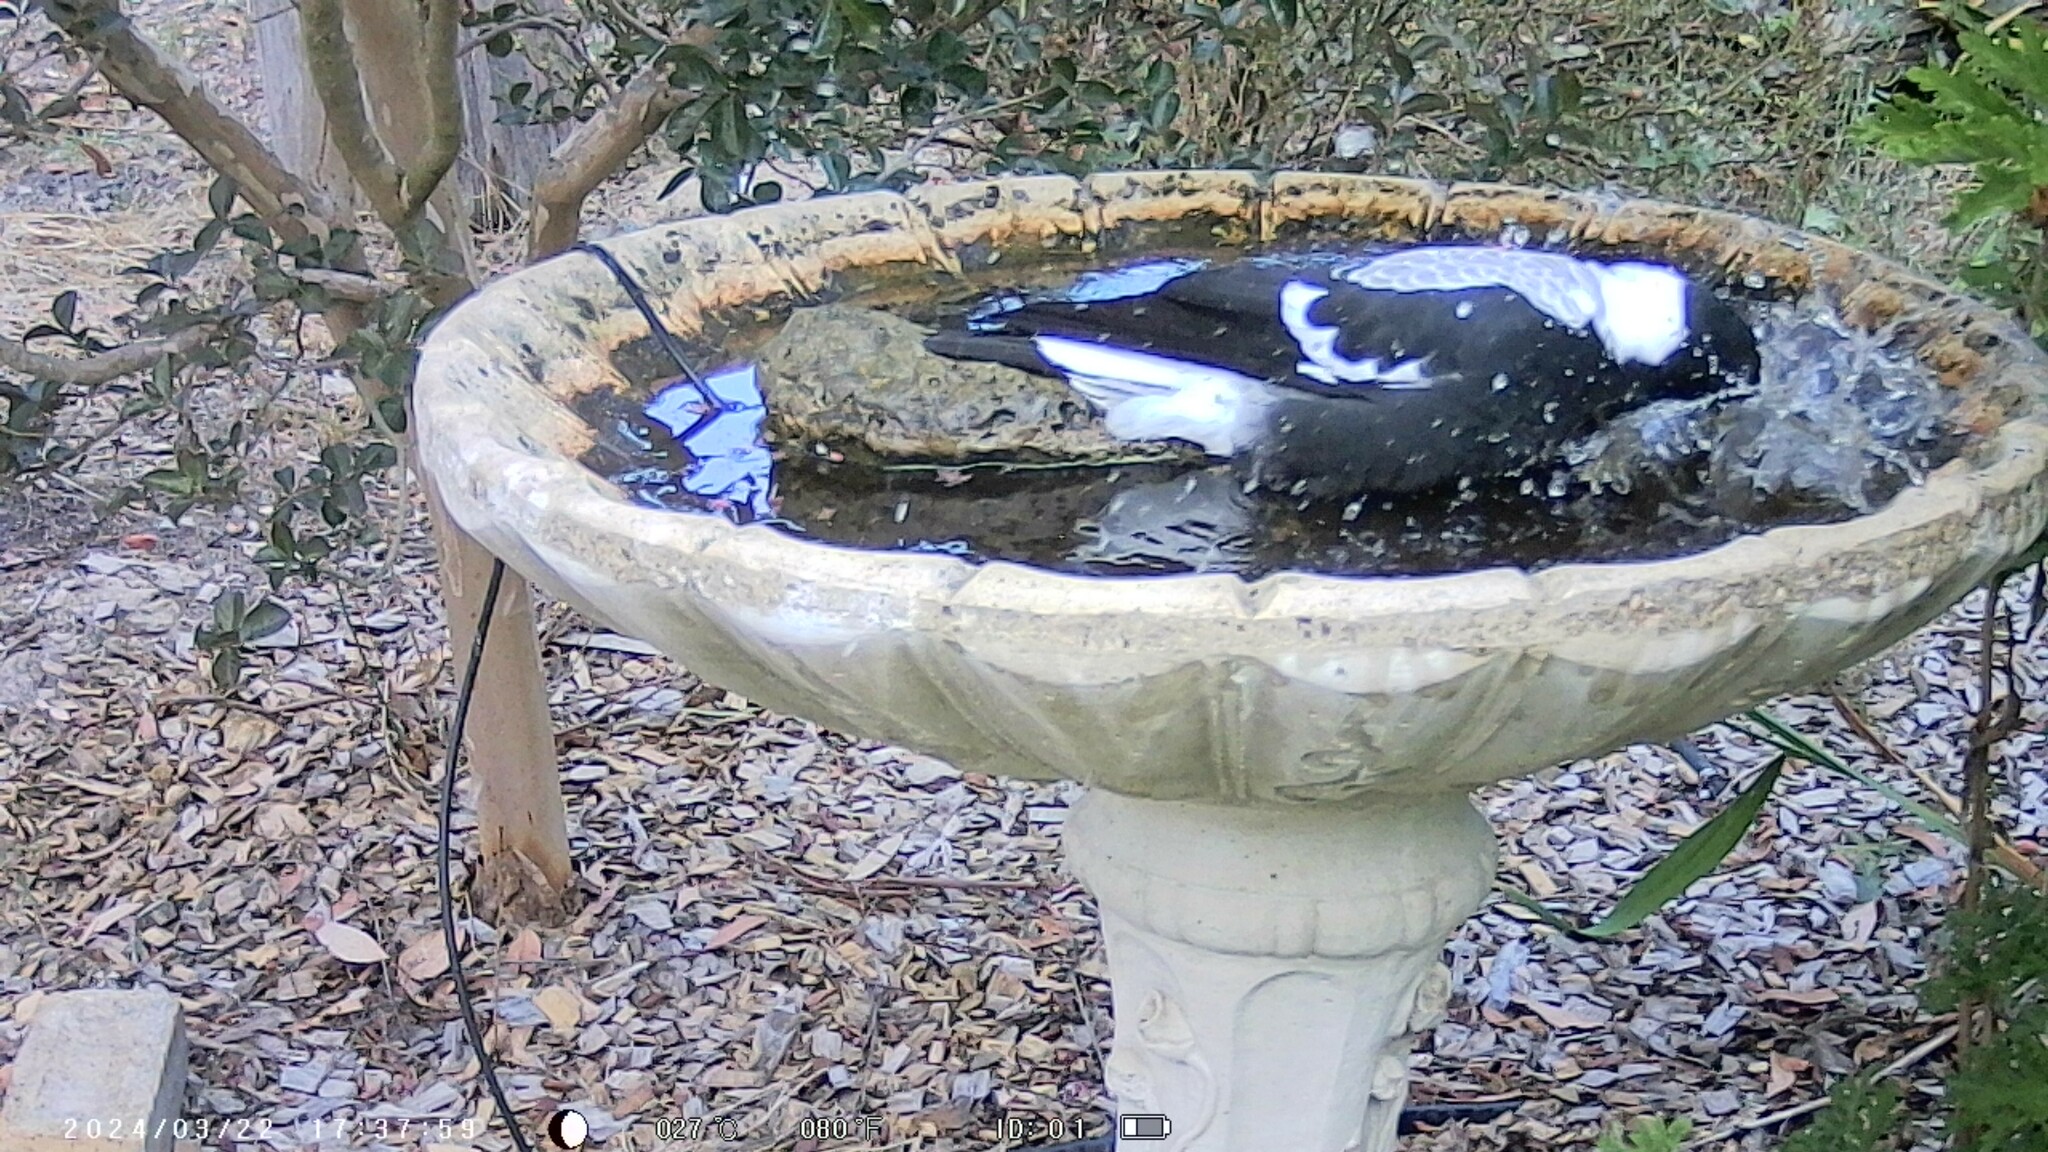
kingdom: Animalia
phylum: Chordata
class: Aves
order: Passeriformes
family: Cracticidae
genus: Gymnorhina
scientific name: Gymnorhina tibicen
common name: Australian magpie
